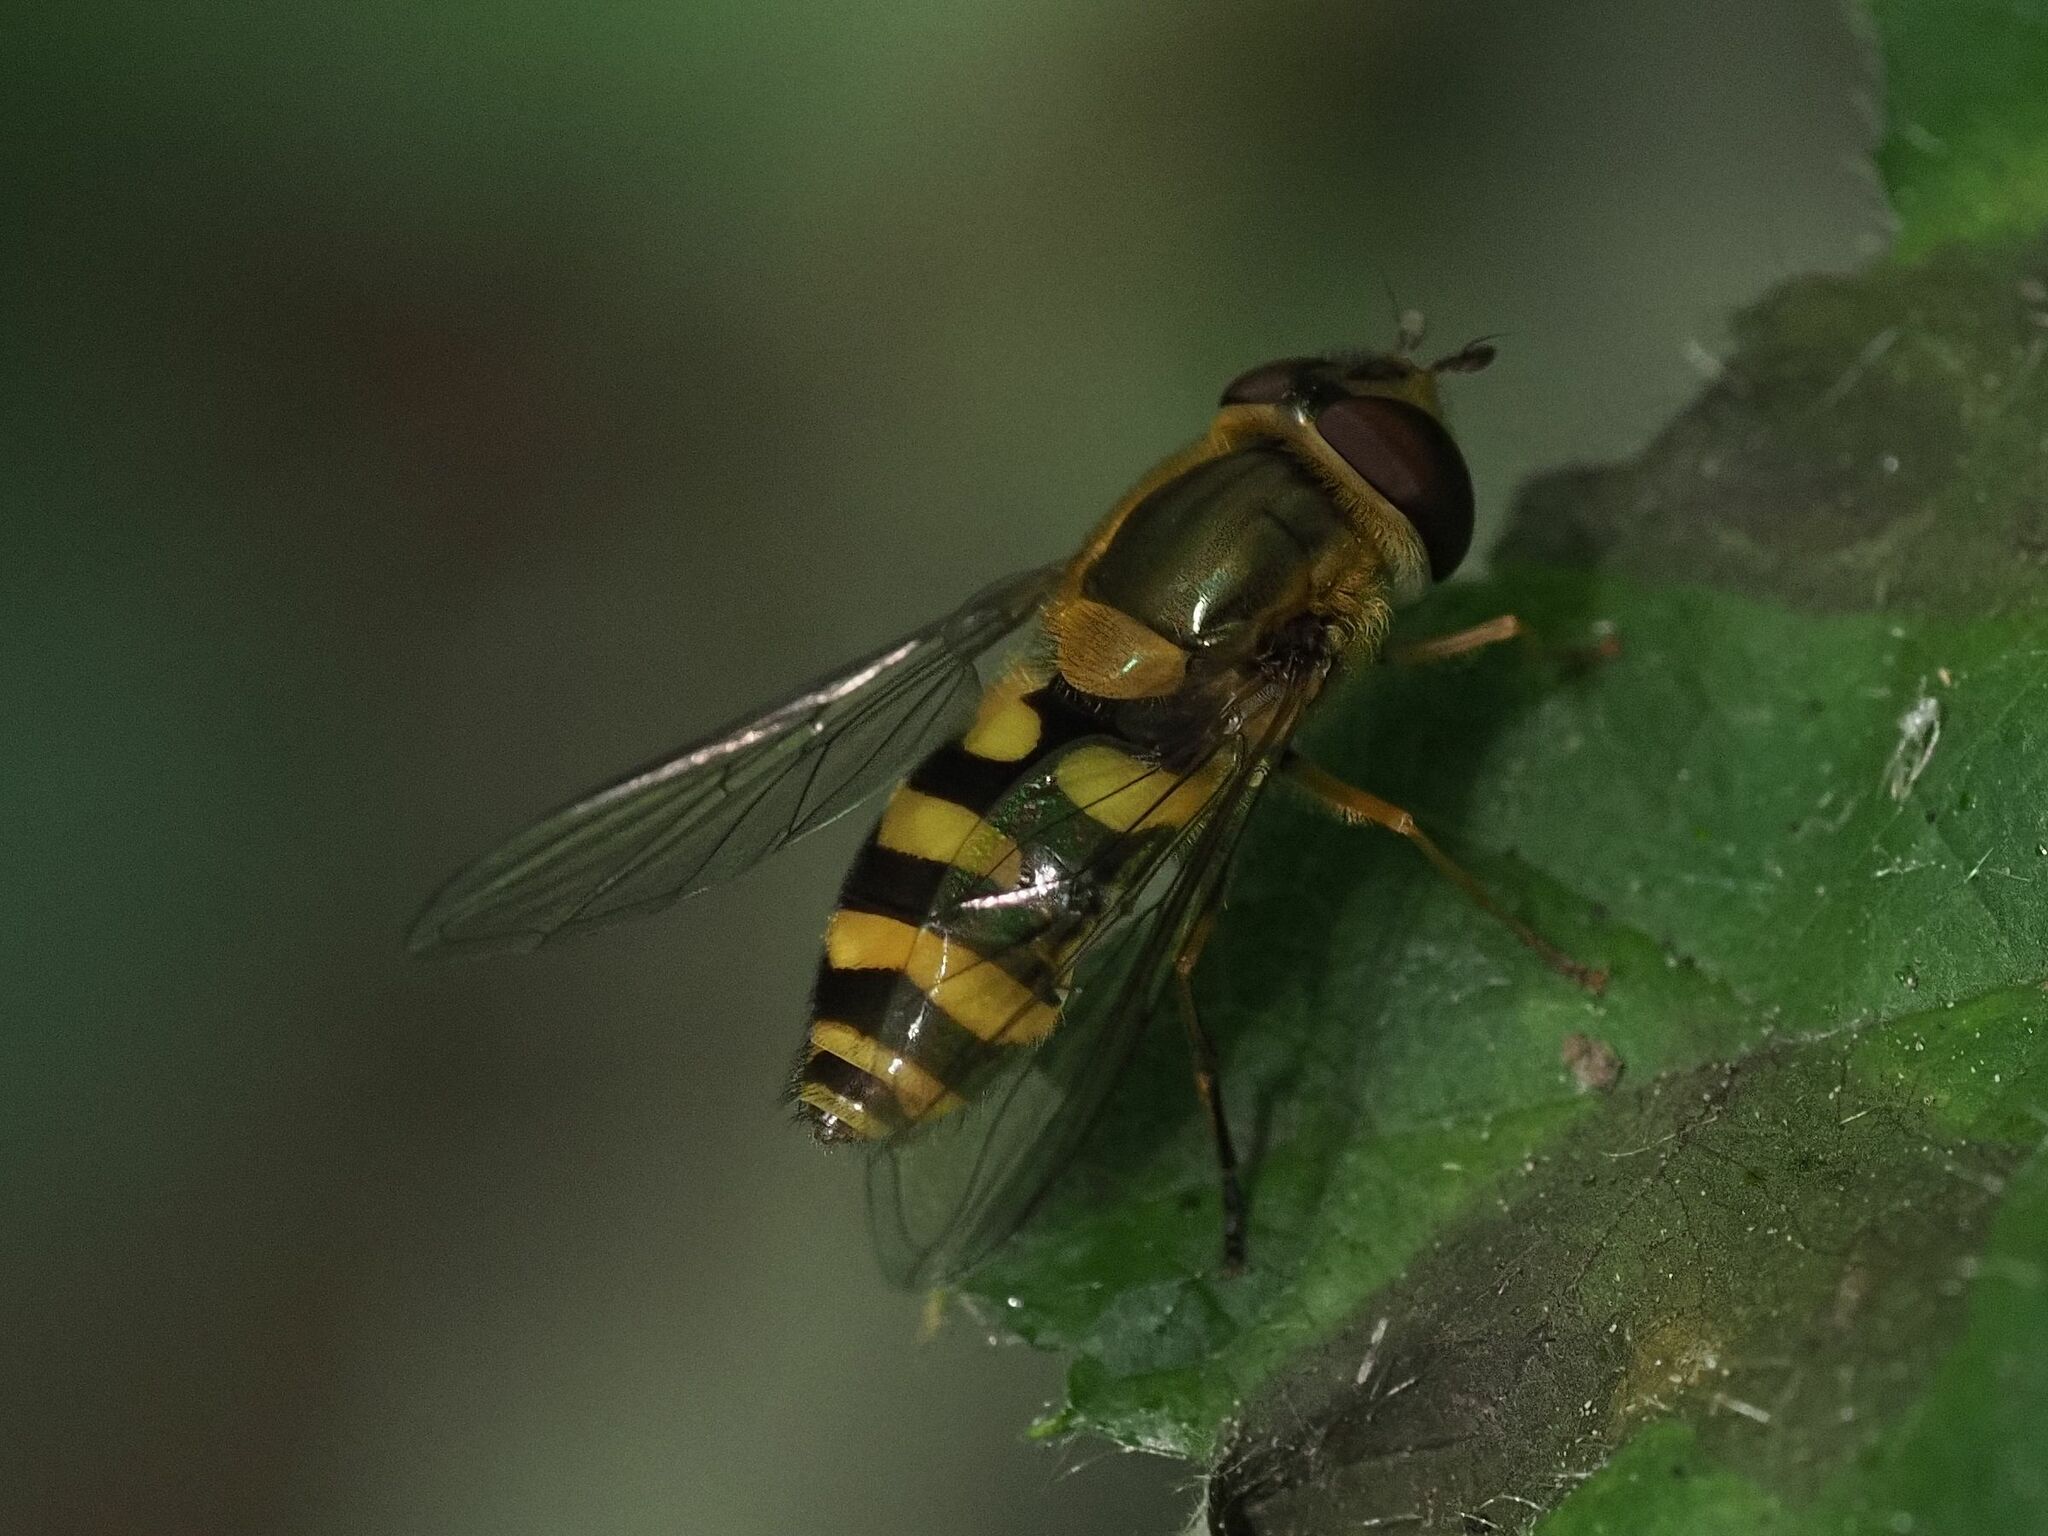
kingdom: Animalia
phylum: Arthropoda
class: Insecta
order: Diptera
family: Syrphidae
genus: Syrphus
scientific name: Syrphus
